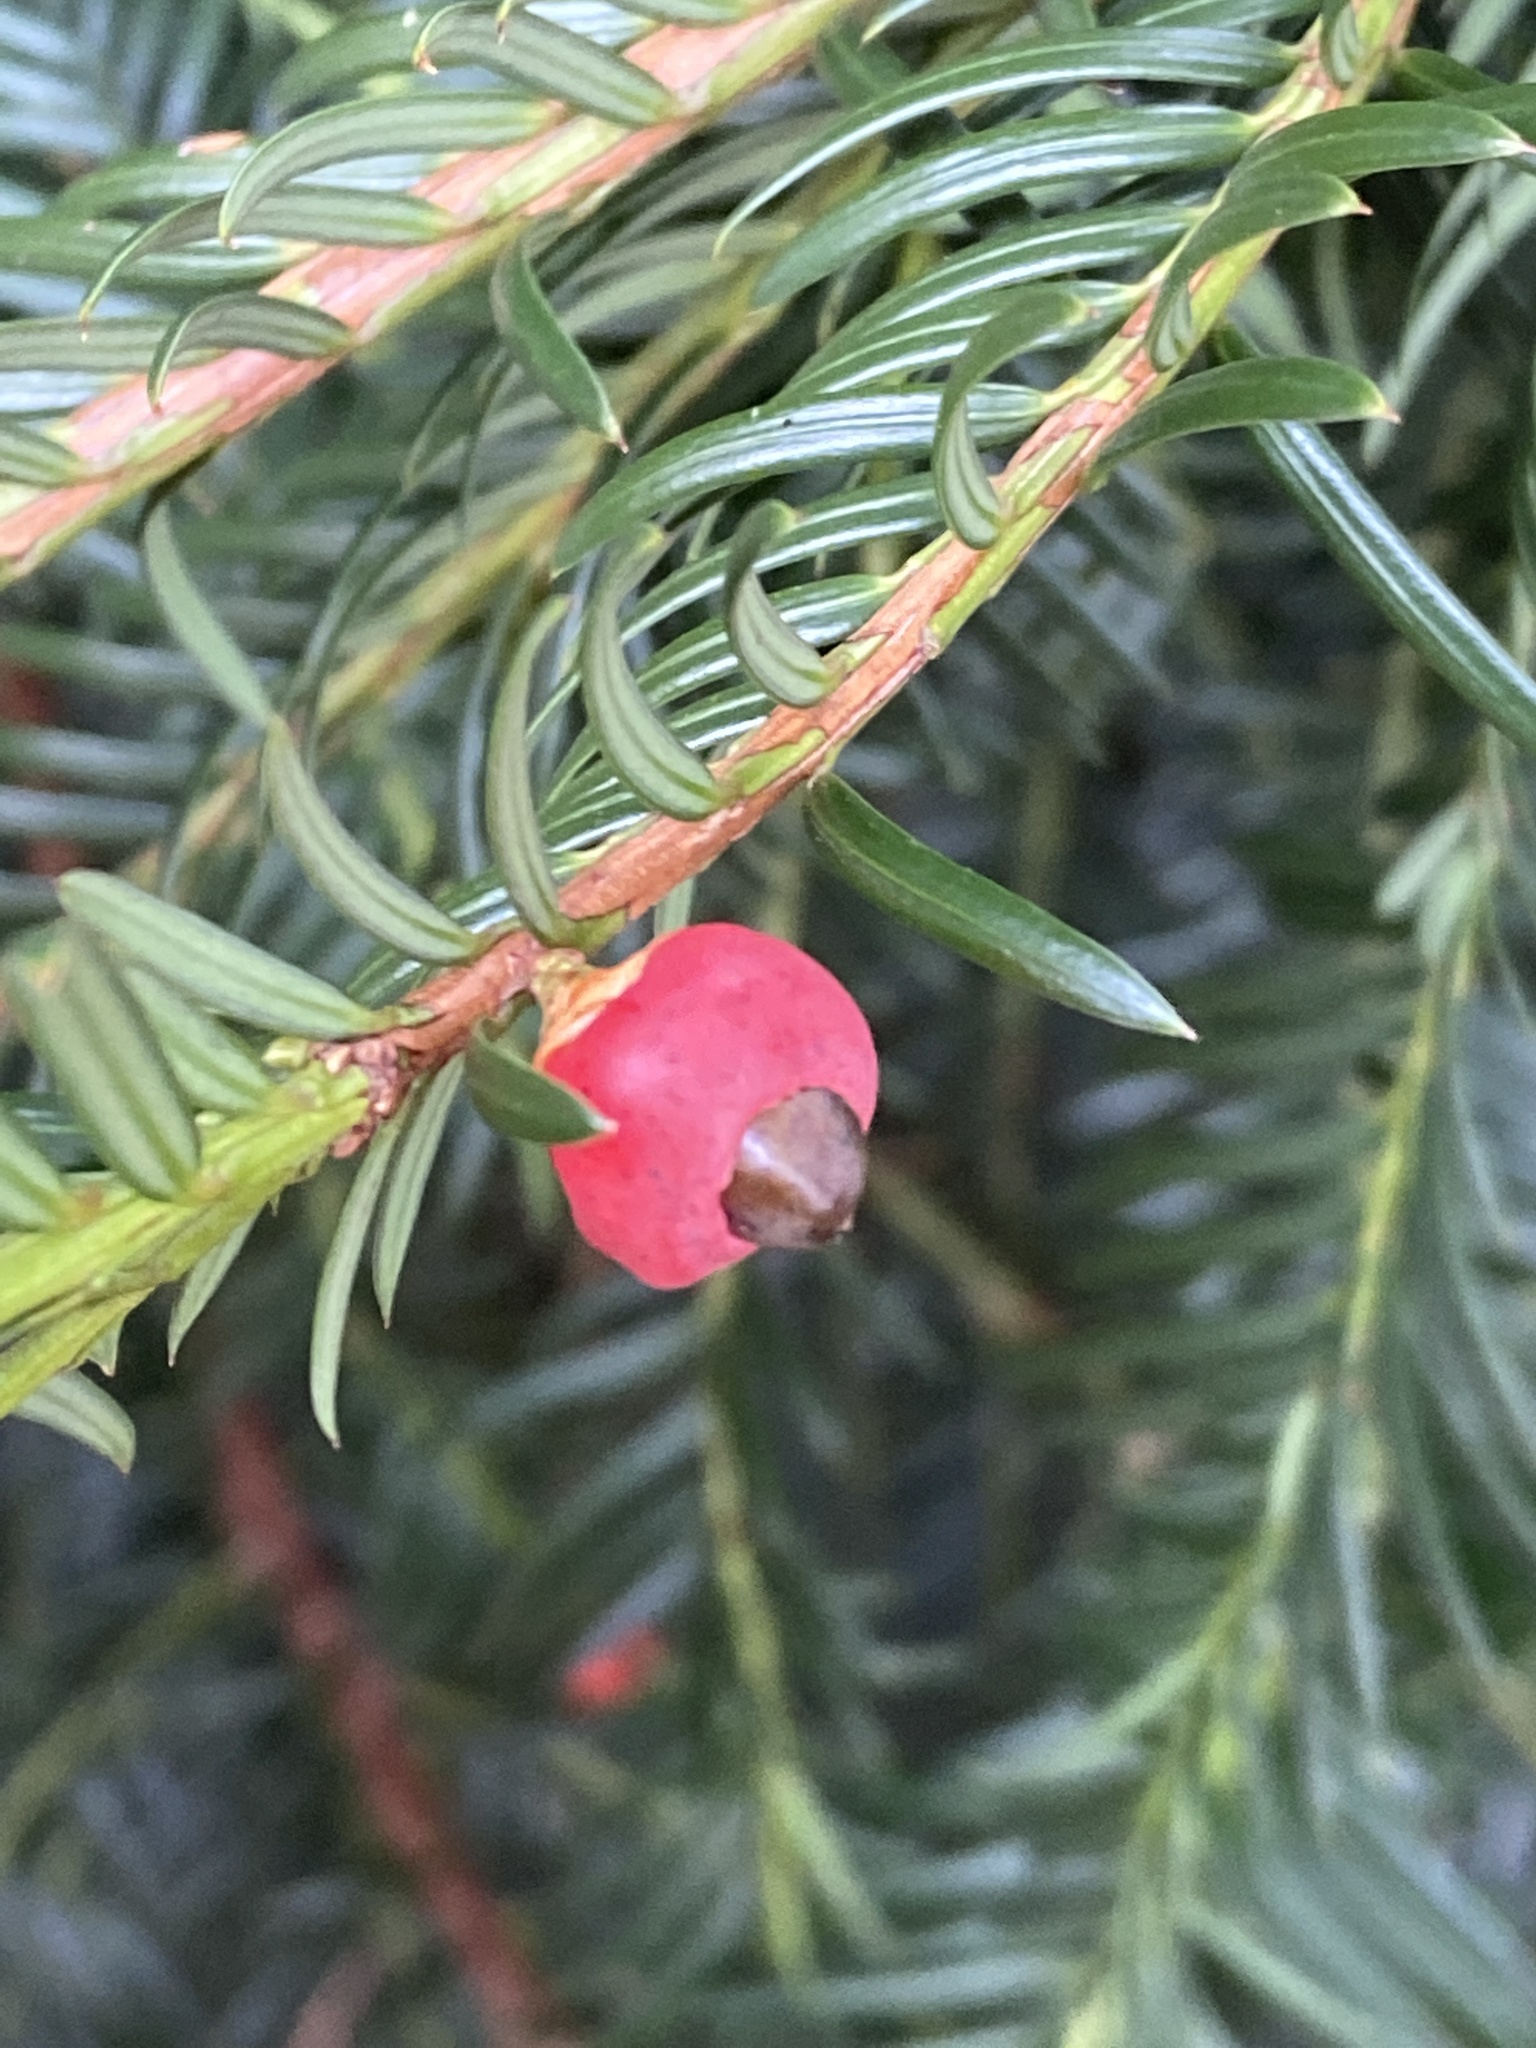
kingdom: Plantae
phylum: Tracheophyta
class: Pinopsida
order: Pinales
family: Taxaceae
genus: Taxus
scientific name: Taxus baccata
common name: Yew
